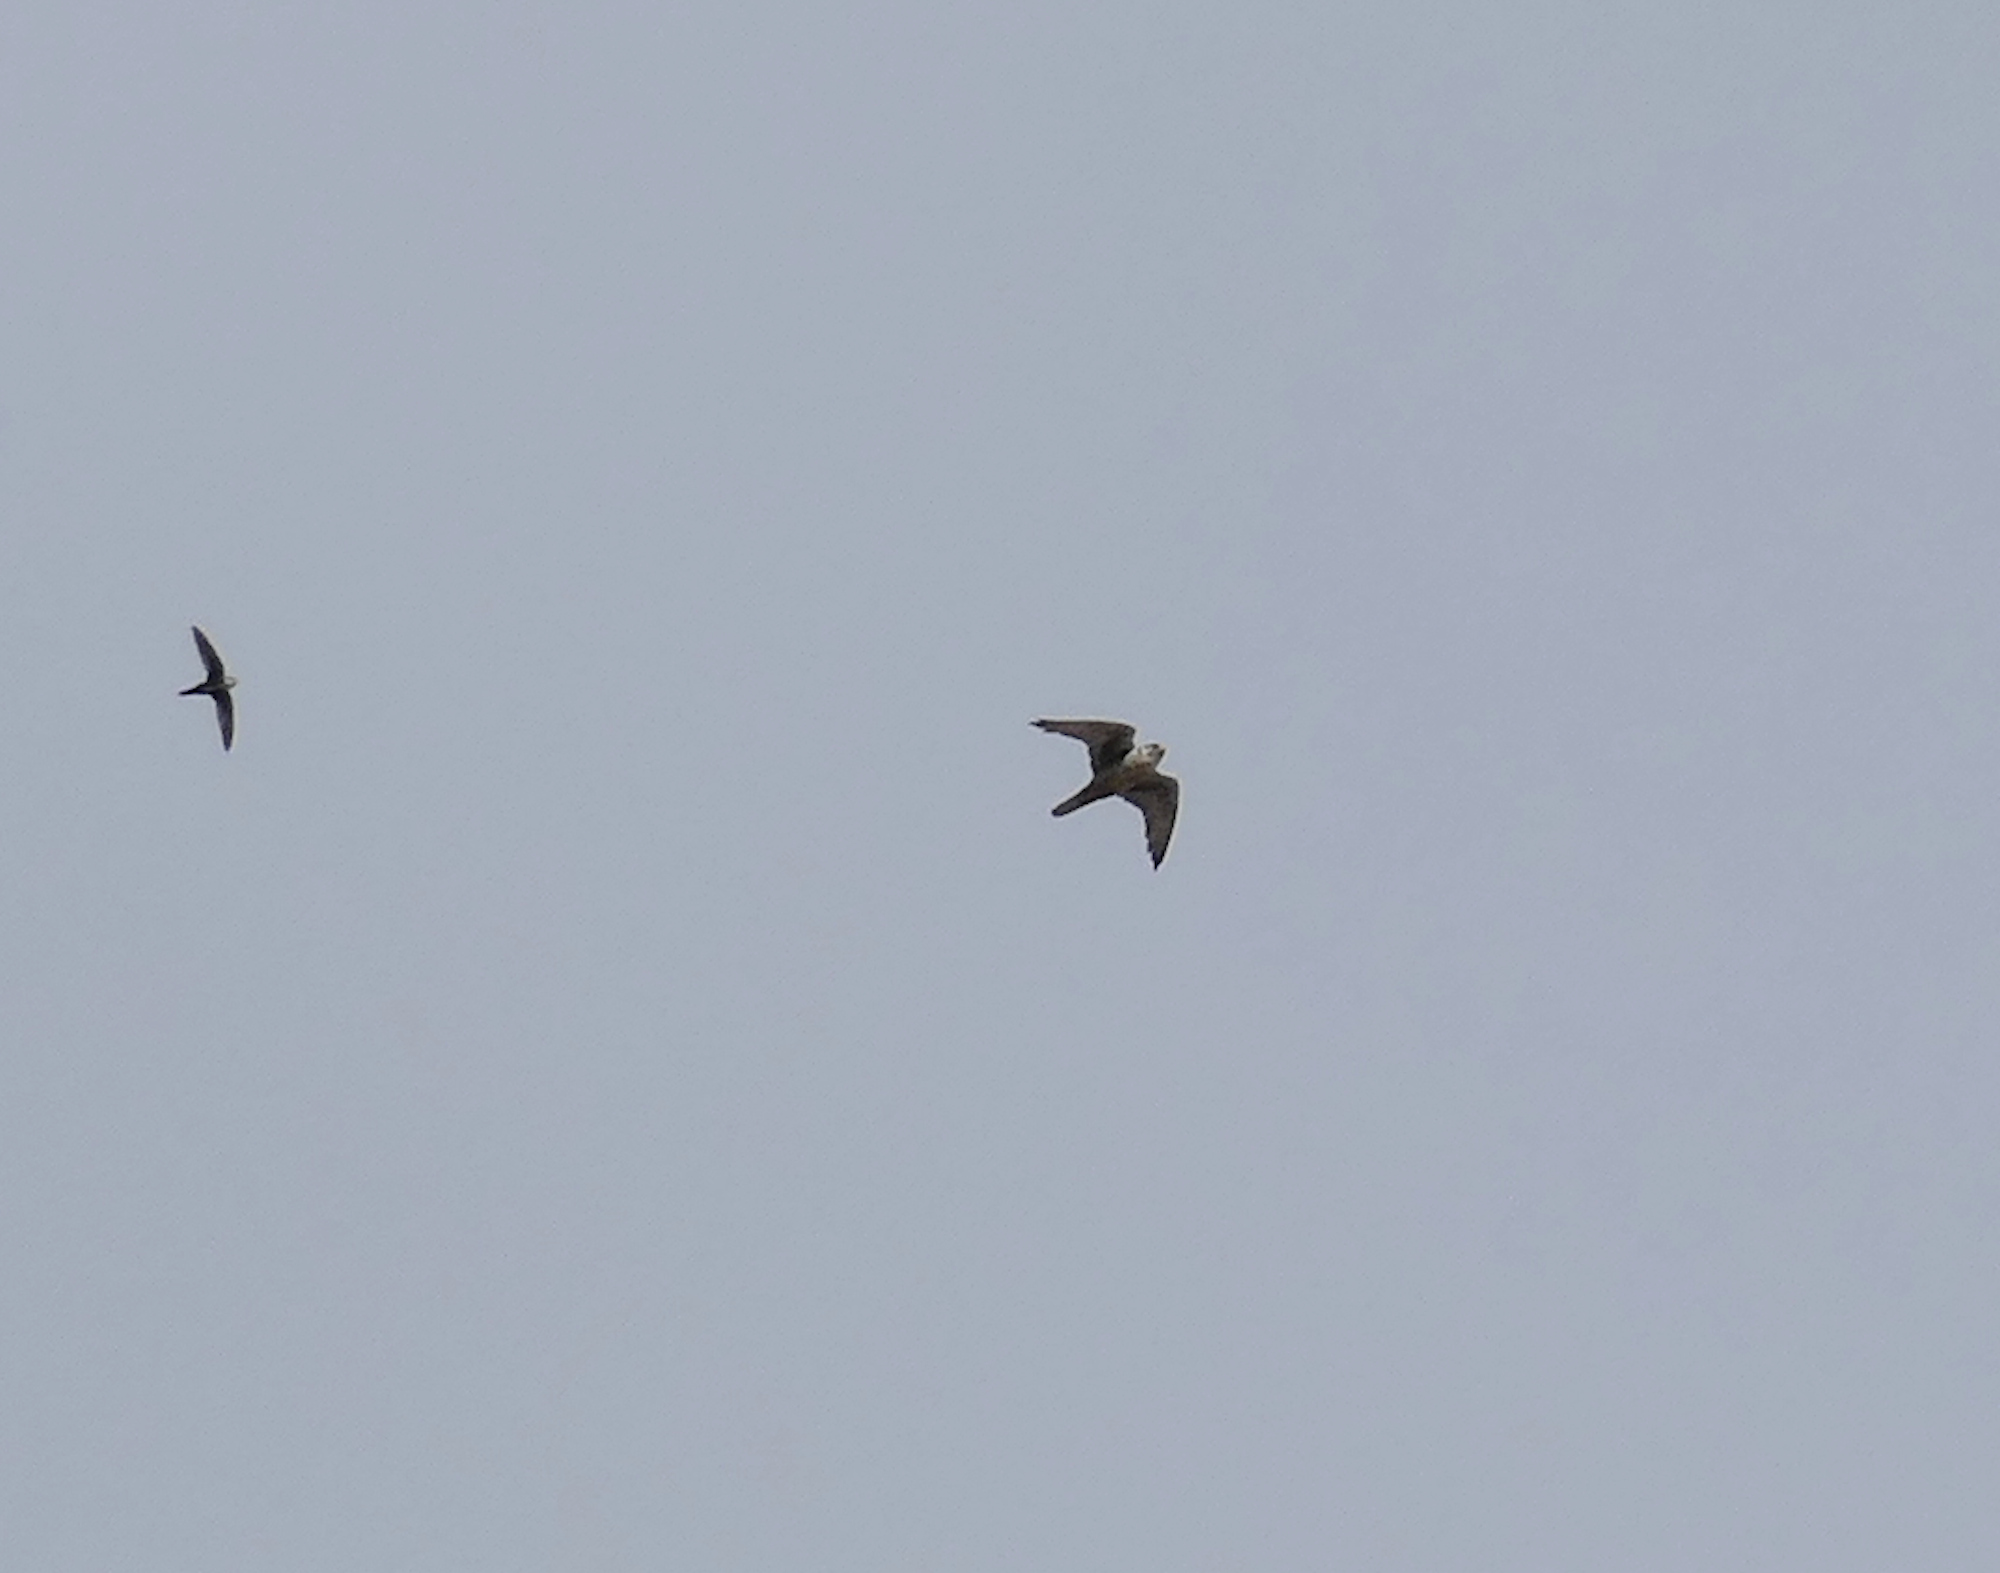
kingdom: Animalia
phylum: Chordata
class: Aves
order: Falconiformes
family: Falconidae
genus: Falco
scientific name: Falco mexicanus
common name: Prairie falcon
